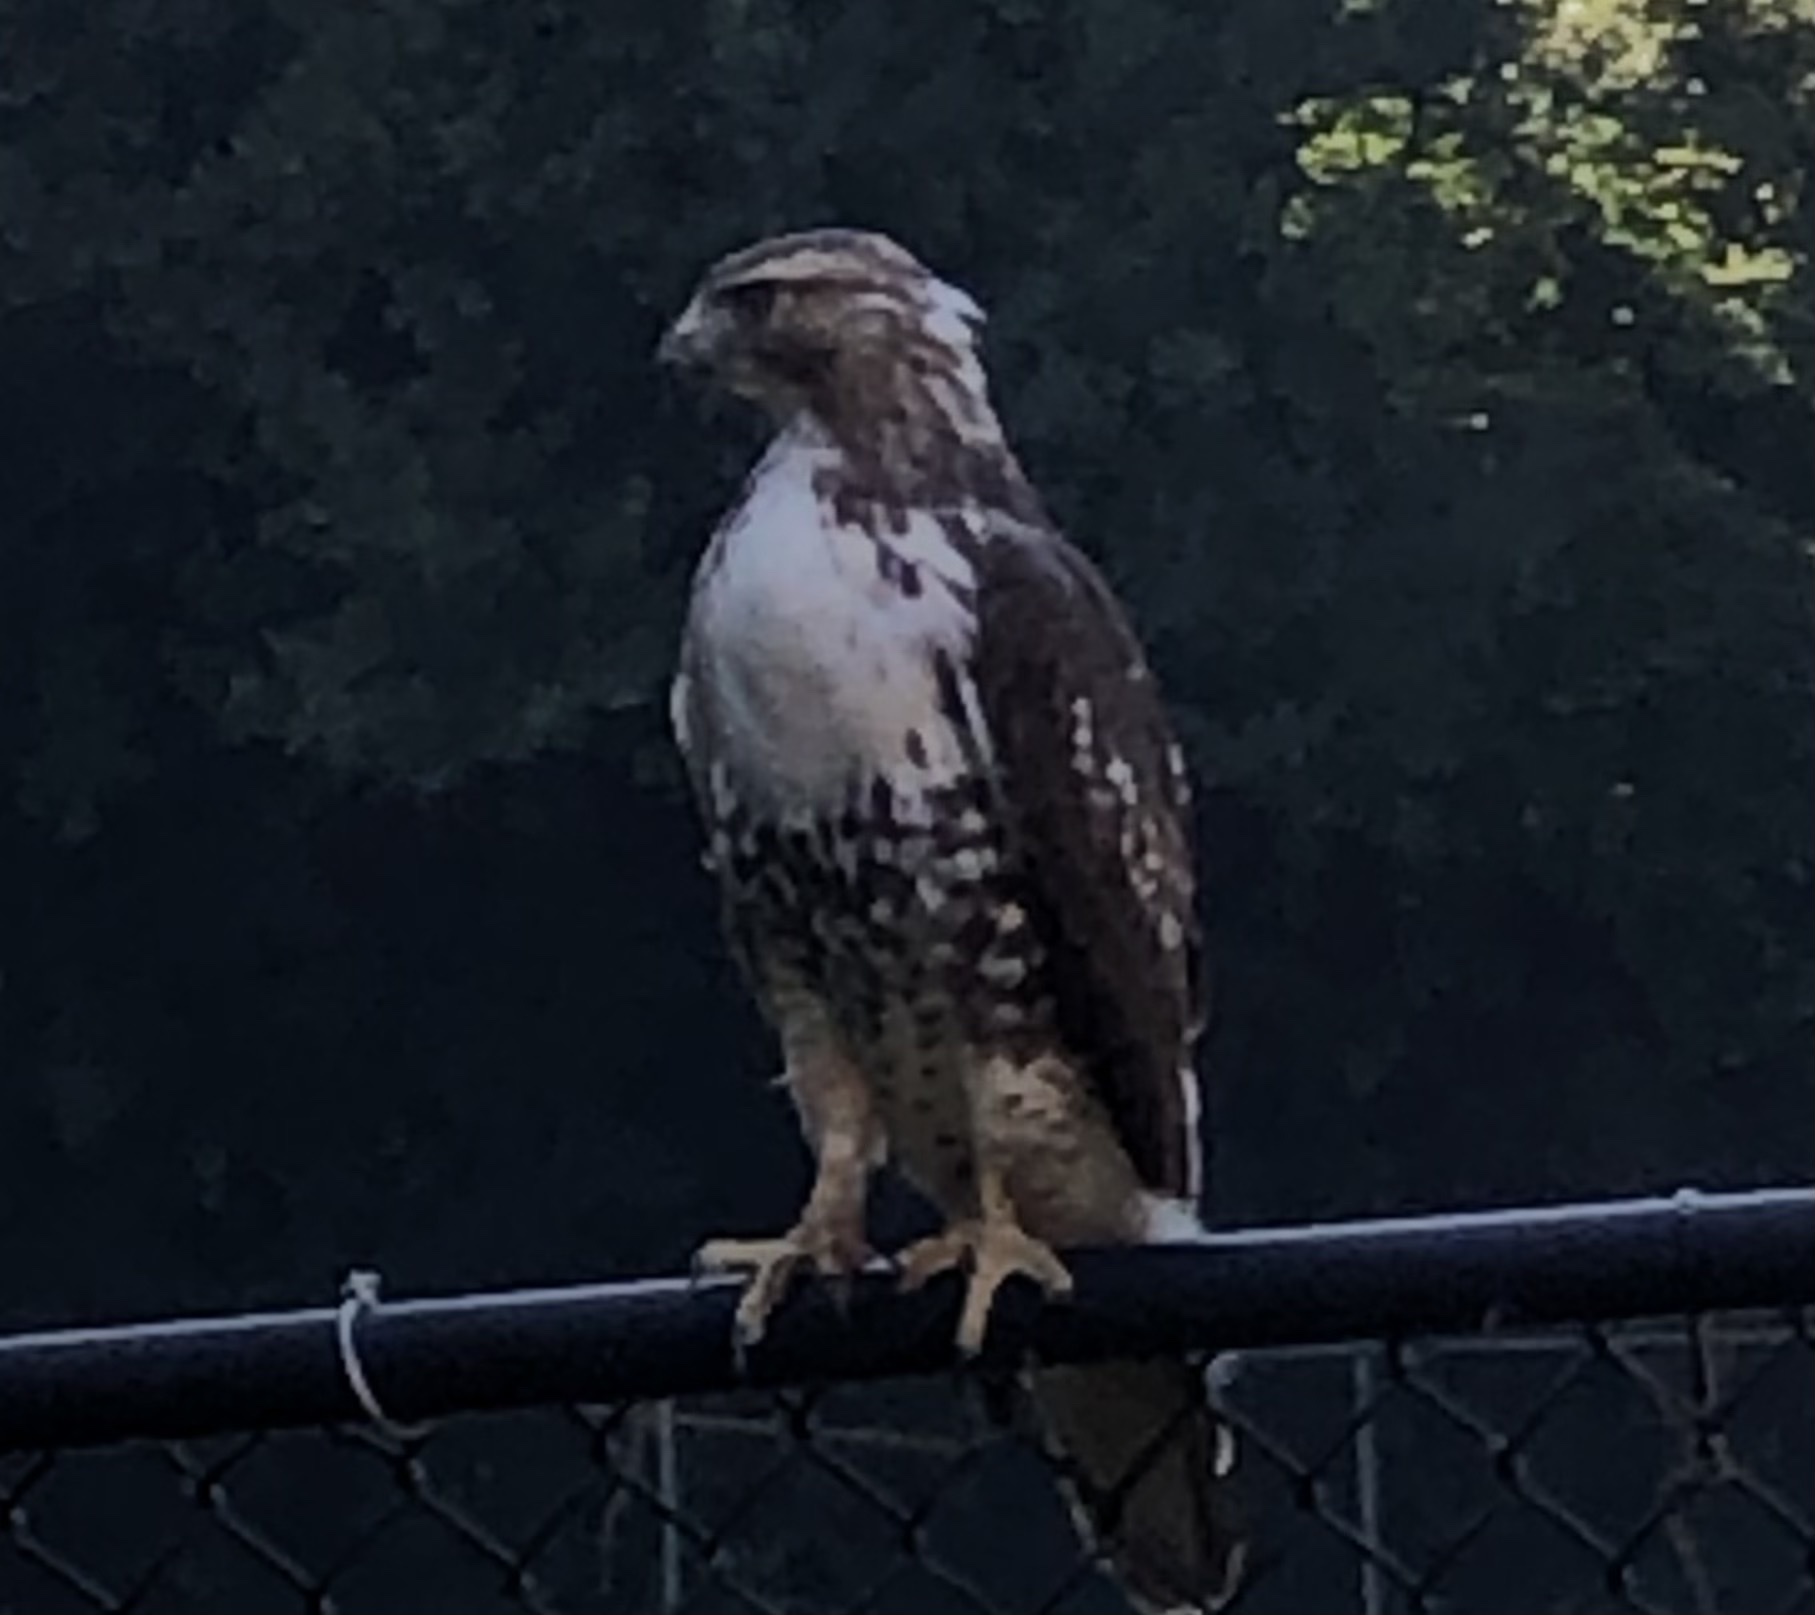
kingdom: Animalia
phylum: Chordata
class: Aves
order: Accipitriformes
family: Accipitridae
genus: Buteo
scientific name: Buteo jamaicensis
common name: Red-tailed hawk
